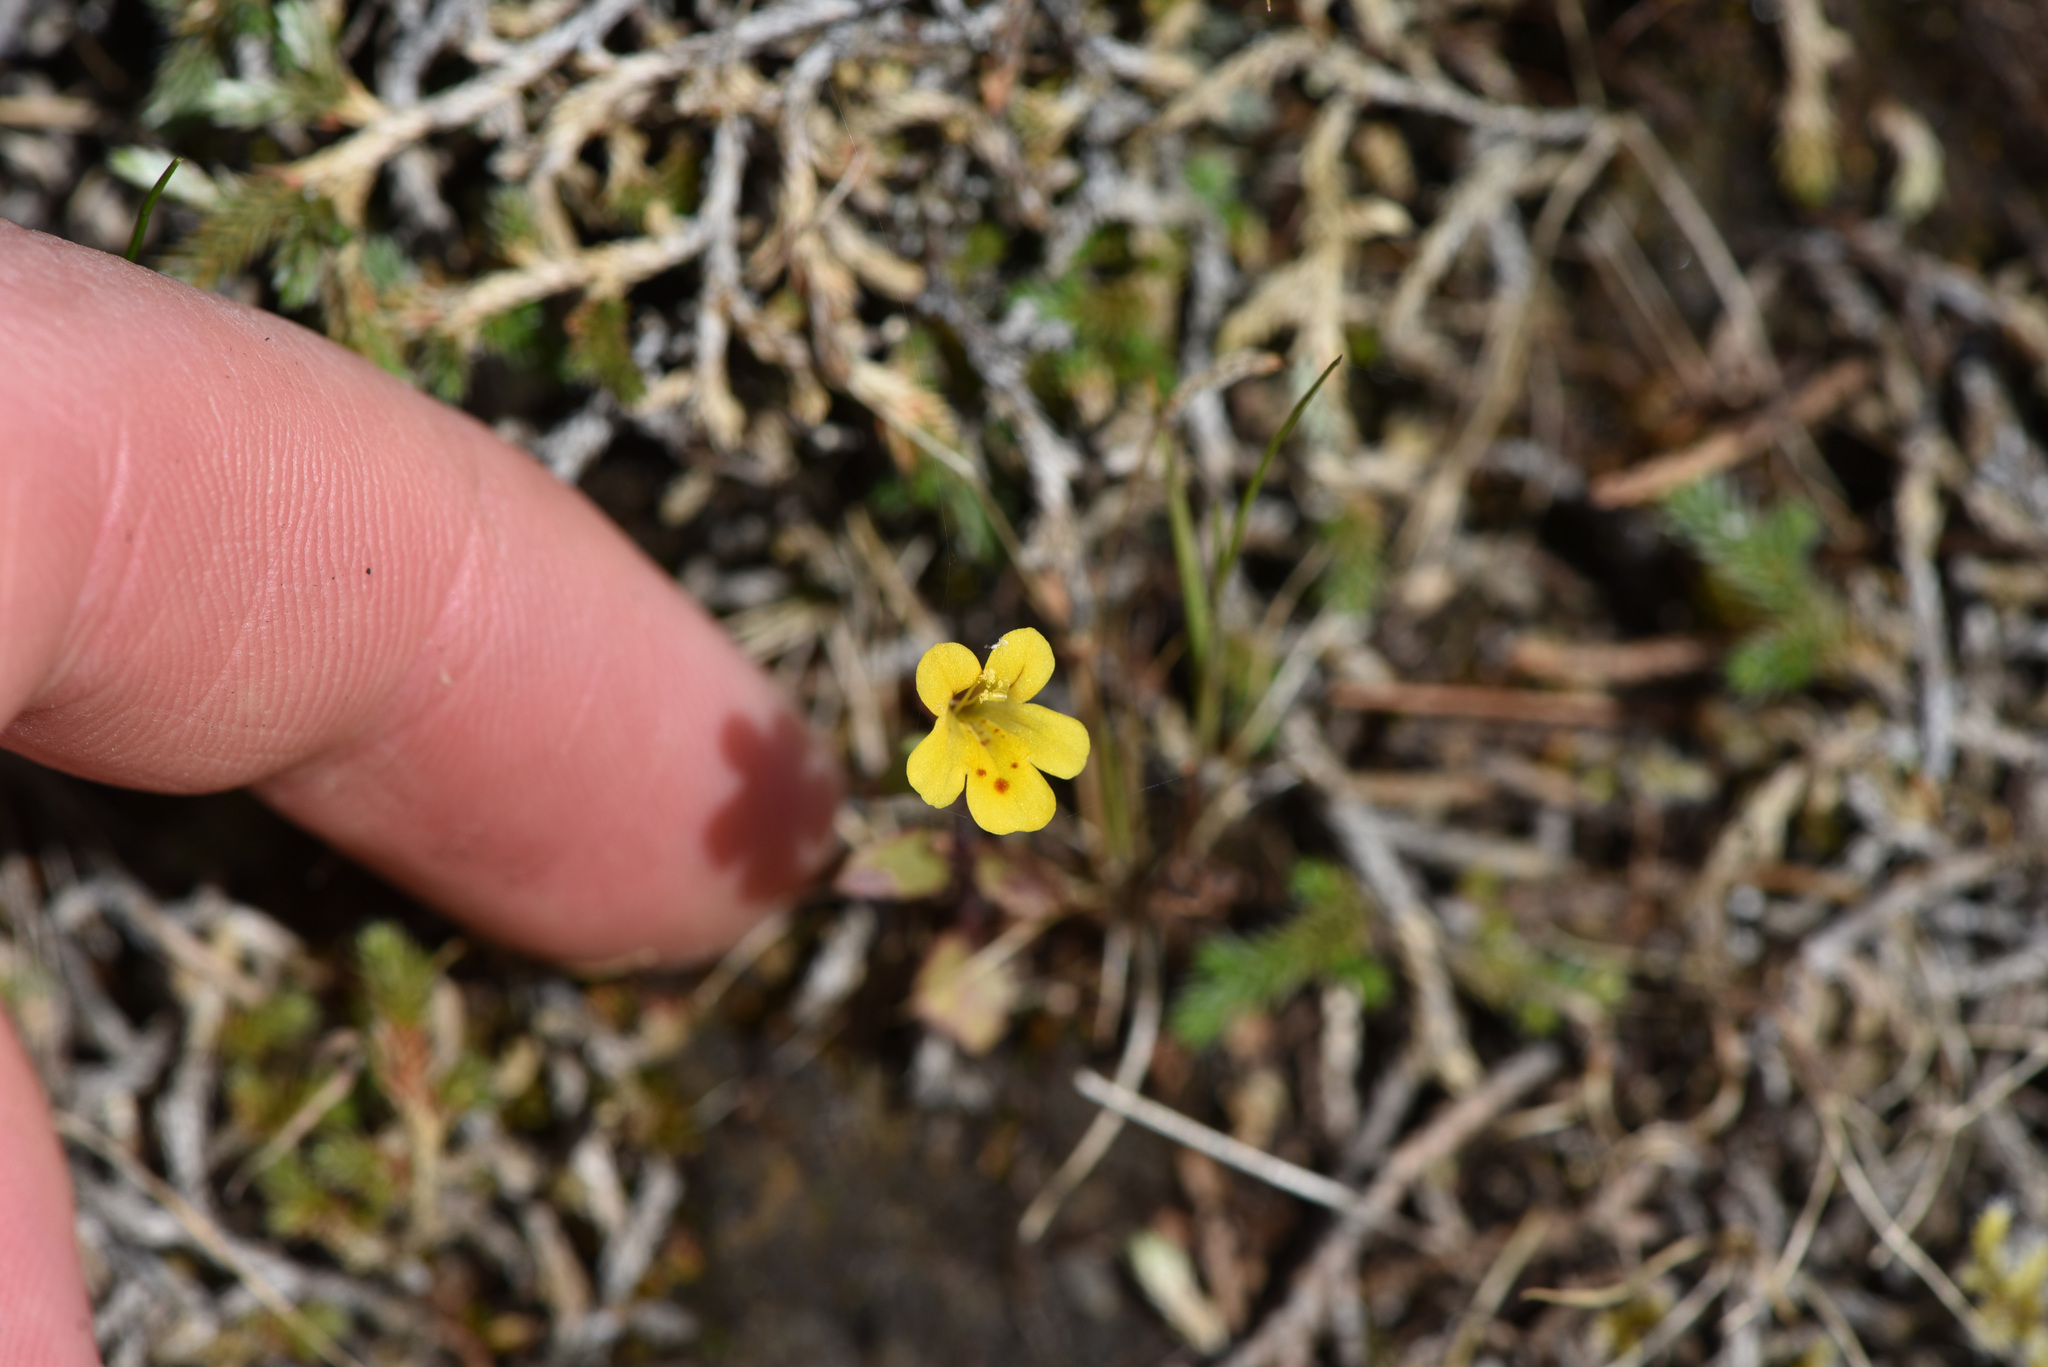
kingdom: Plantae
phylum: Tracheophyta
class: Magnoliopsida
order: Lamiales
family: Phrymaceae
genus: Erythranthe
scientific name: Erythranthe alsinoides
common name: Chickweed monkeyflower
